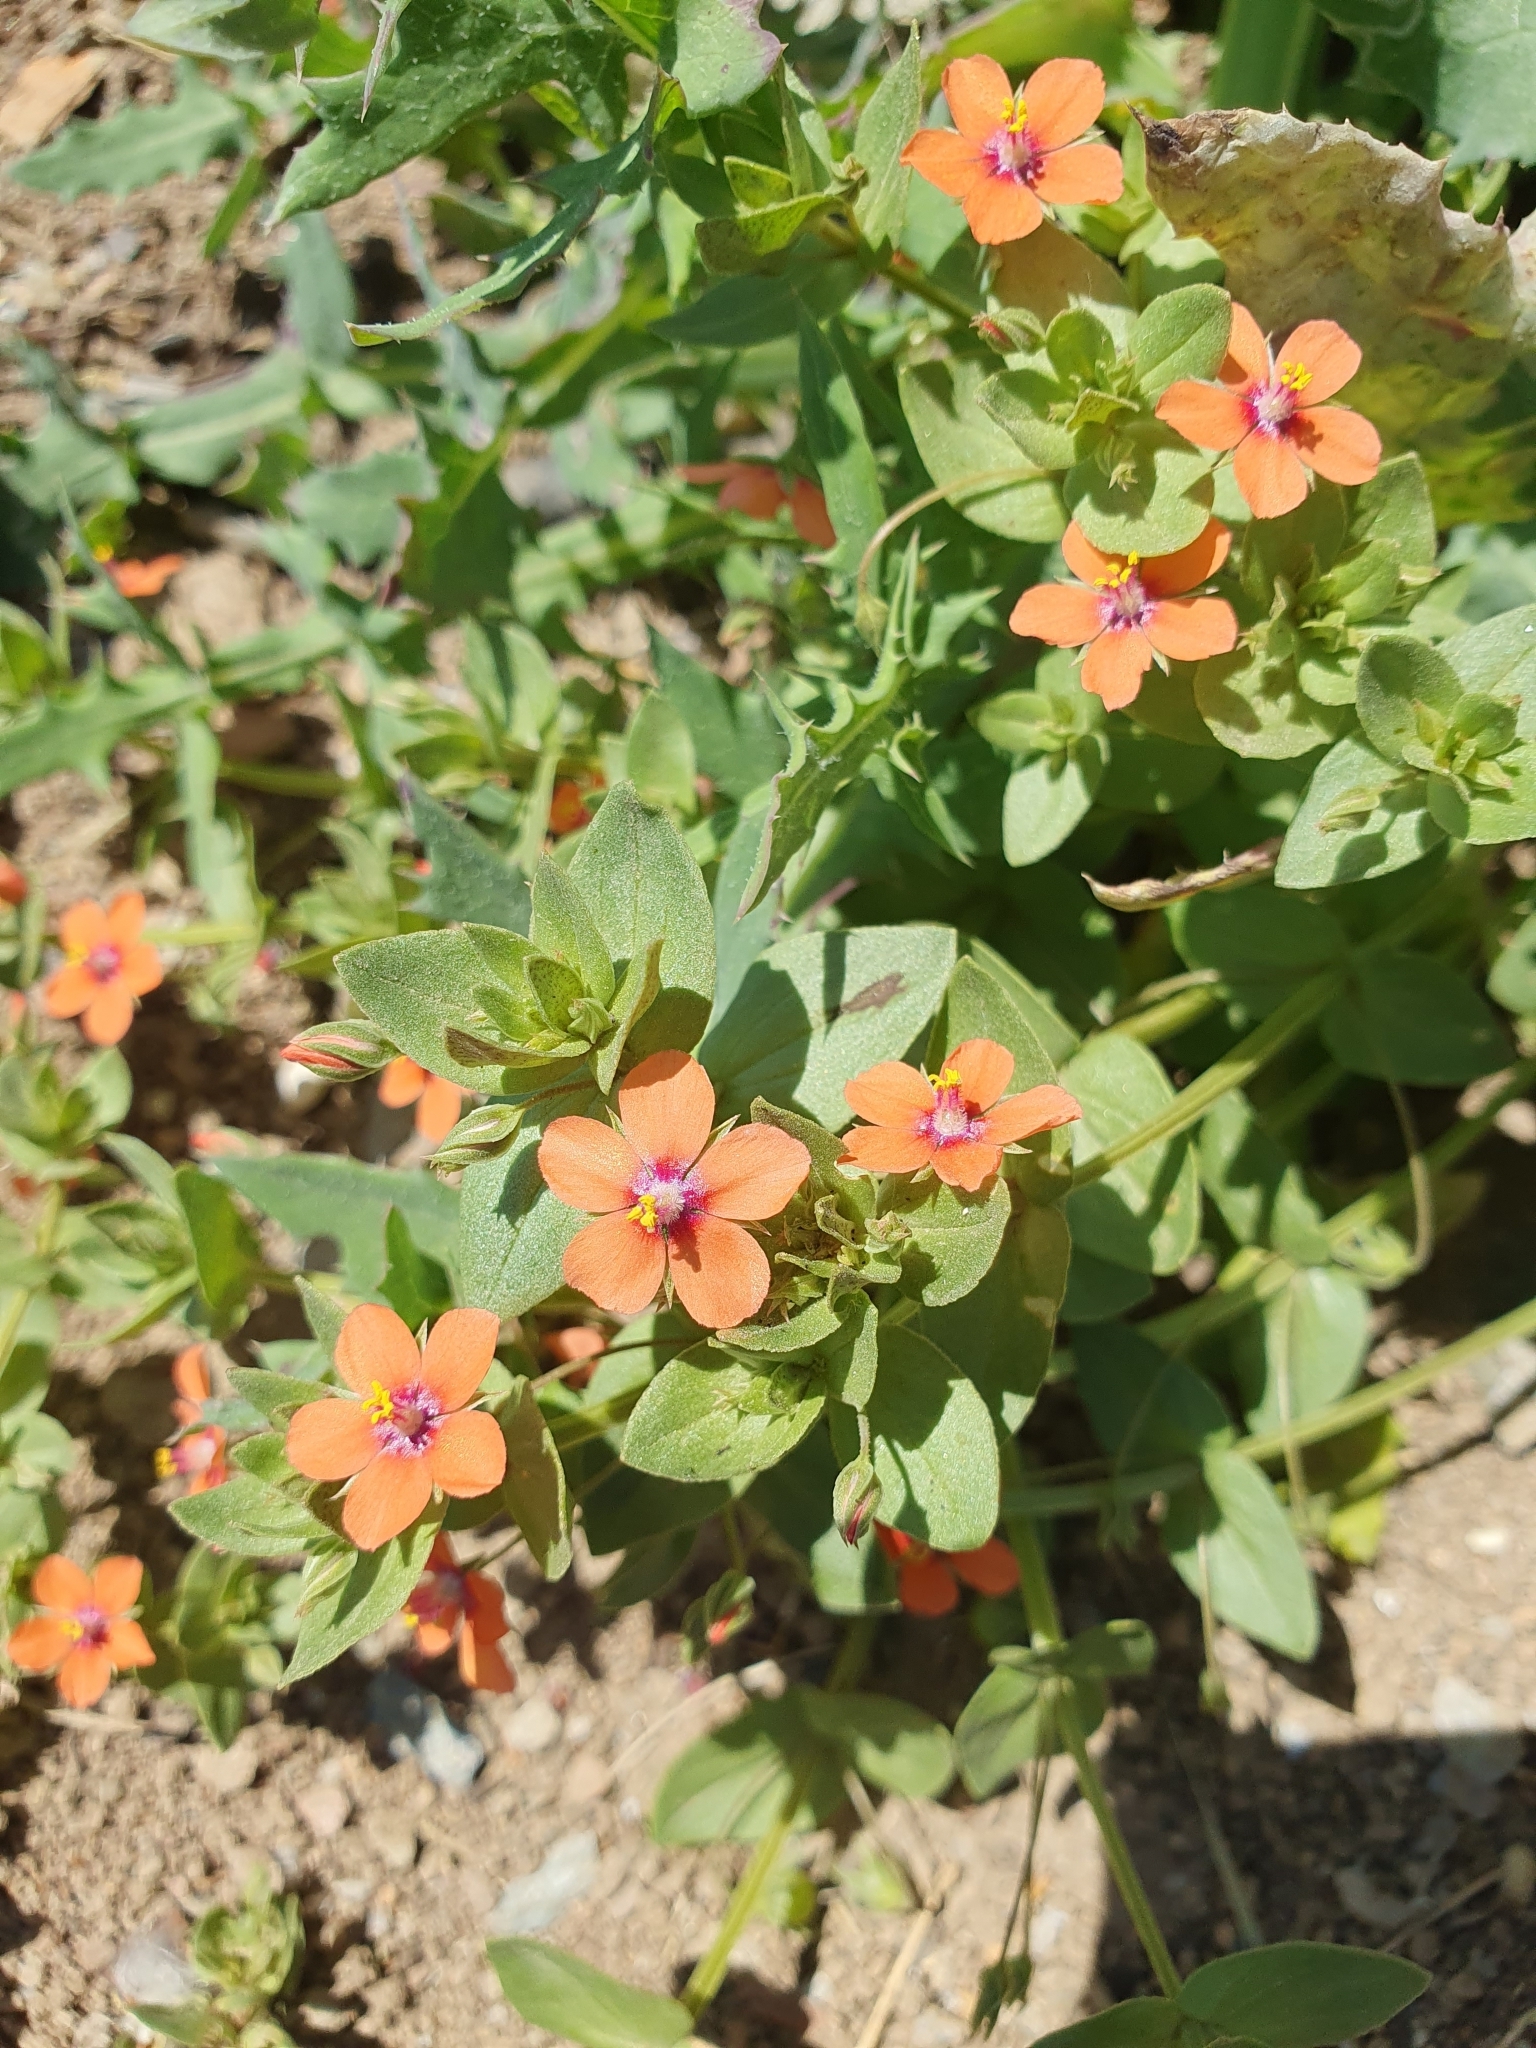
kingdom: Plantae
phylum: Tracheophyta
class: Magnoliopsida
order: Ericales
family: Primulaceae
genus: Lysimachia
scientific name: Lysimachia arvensis
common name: Scarlet pimpernel
